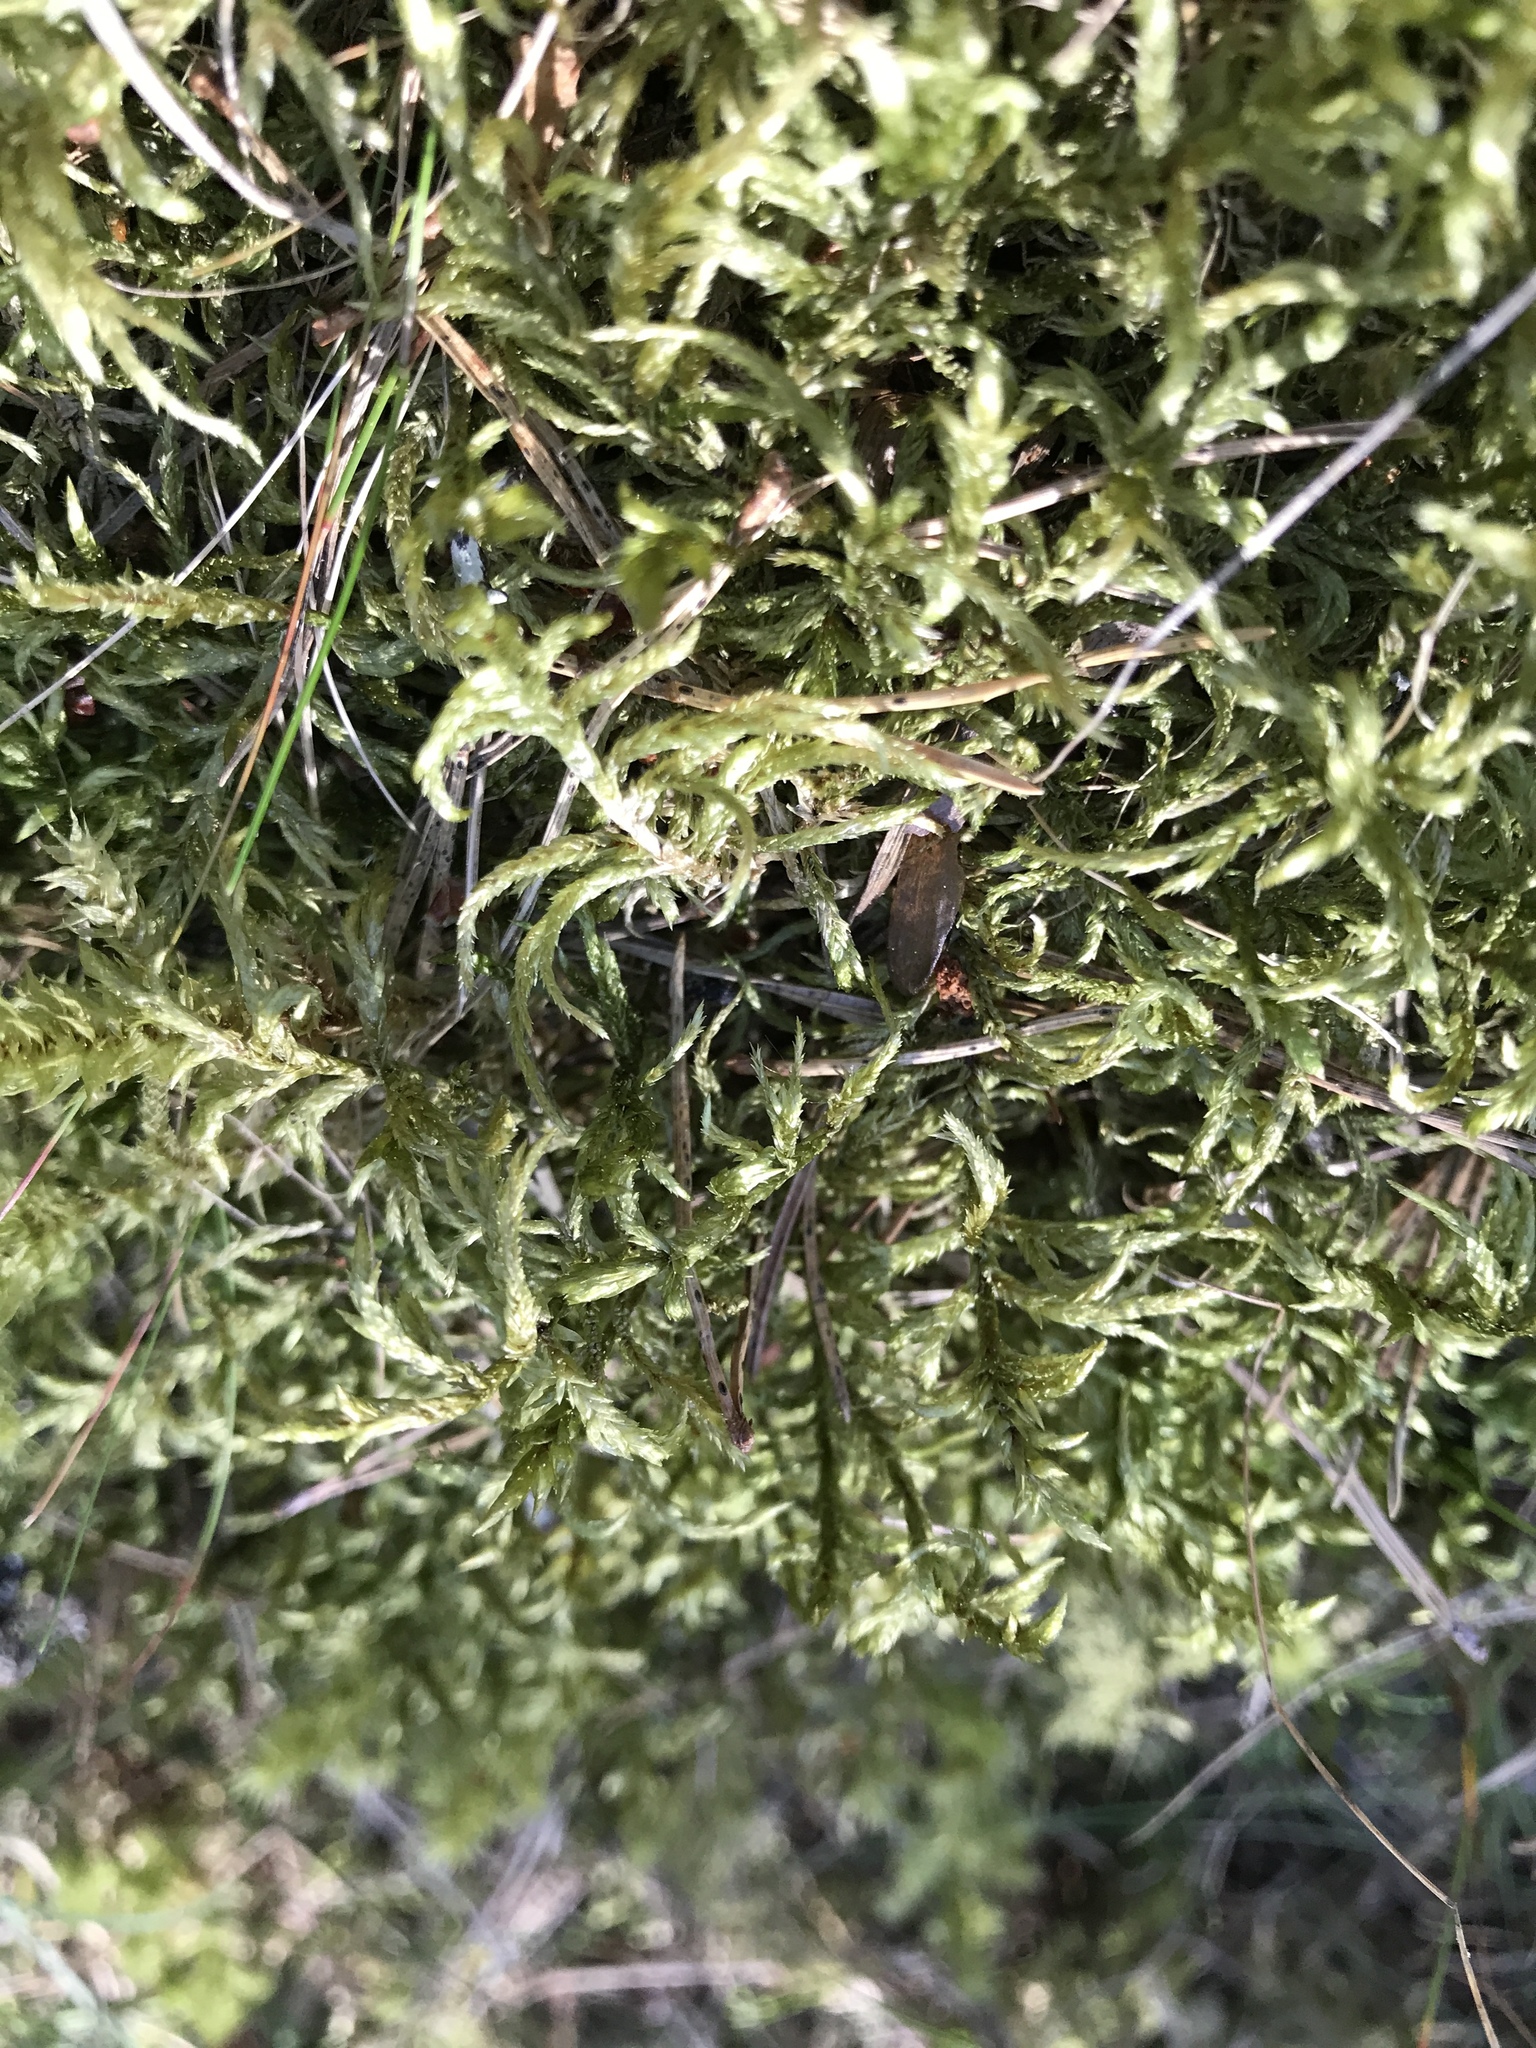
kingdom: Plantae
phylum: Bryophyta
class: Bryopsida
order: Hypnales
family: Hylocomiaceae
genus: Pleurozium
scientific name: Pleurozium schreberi
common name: Red-stemmed feather moss
